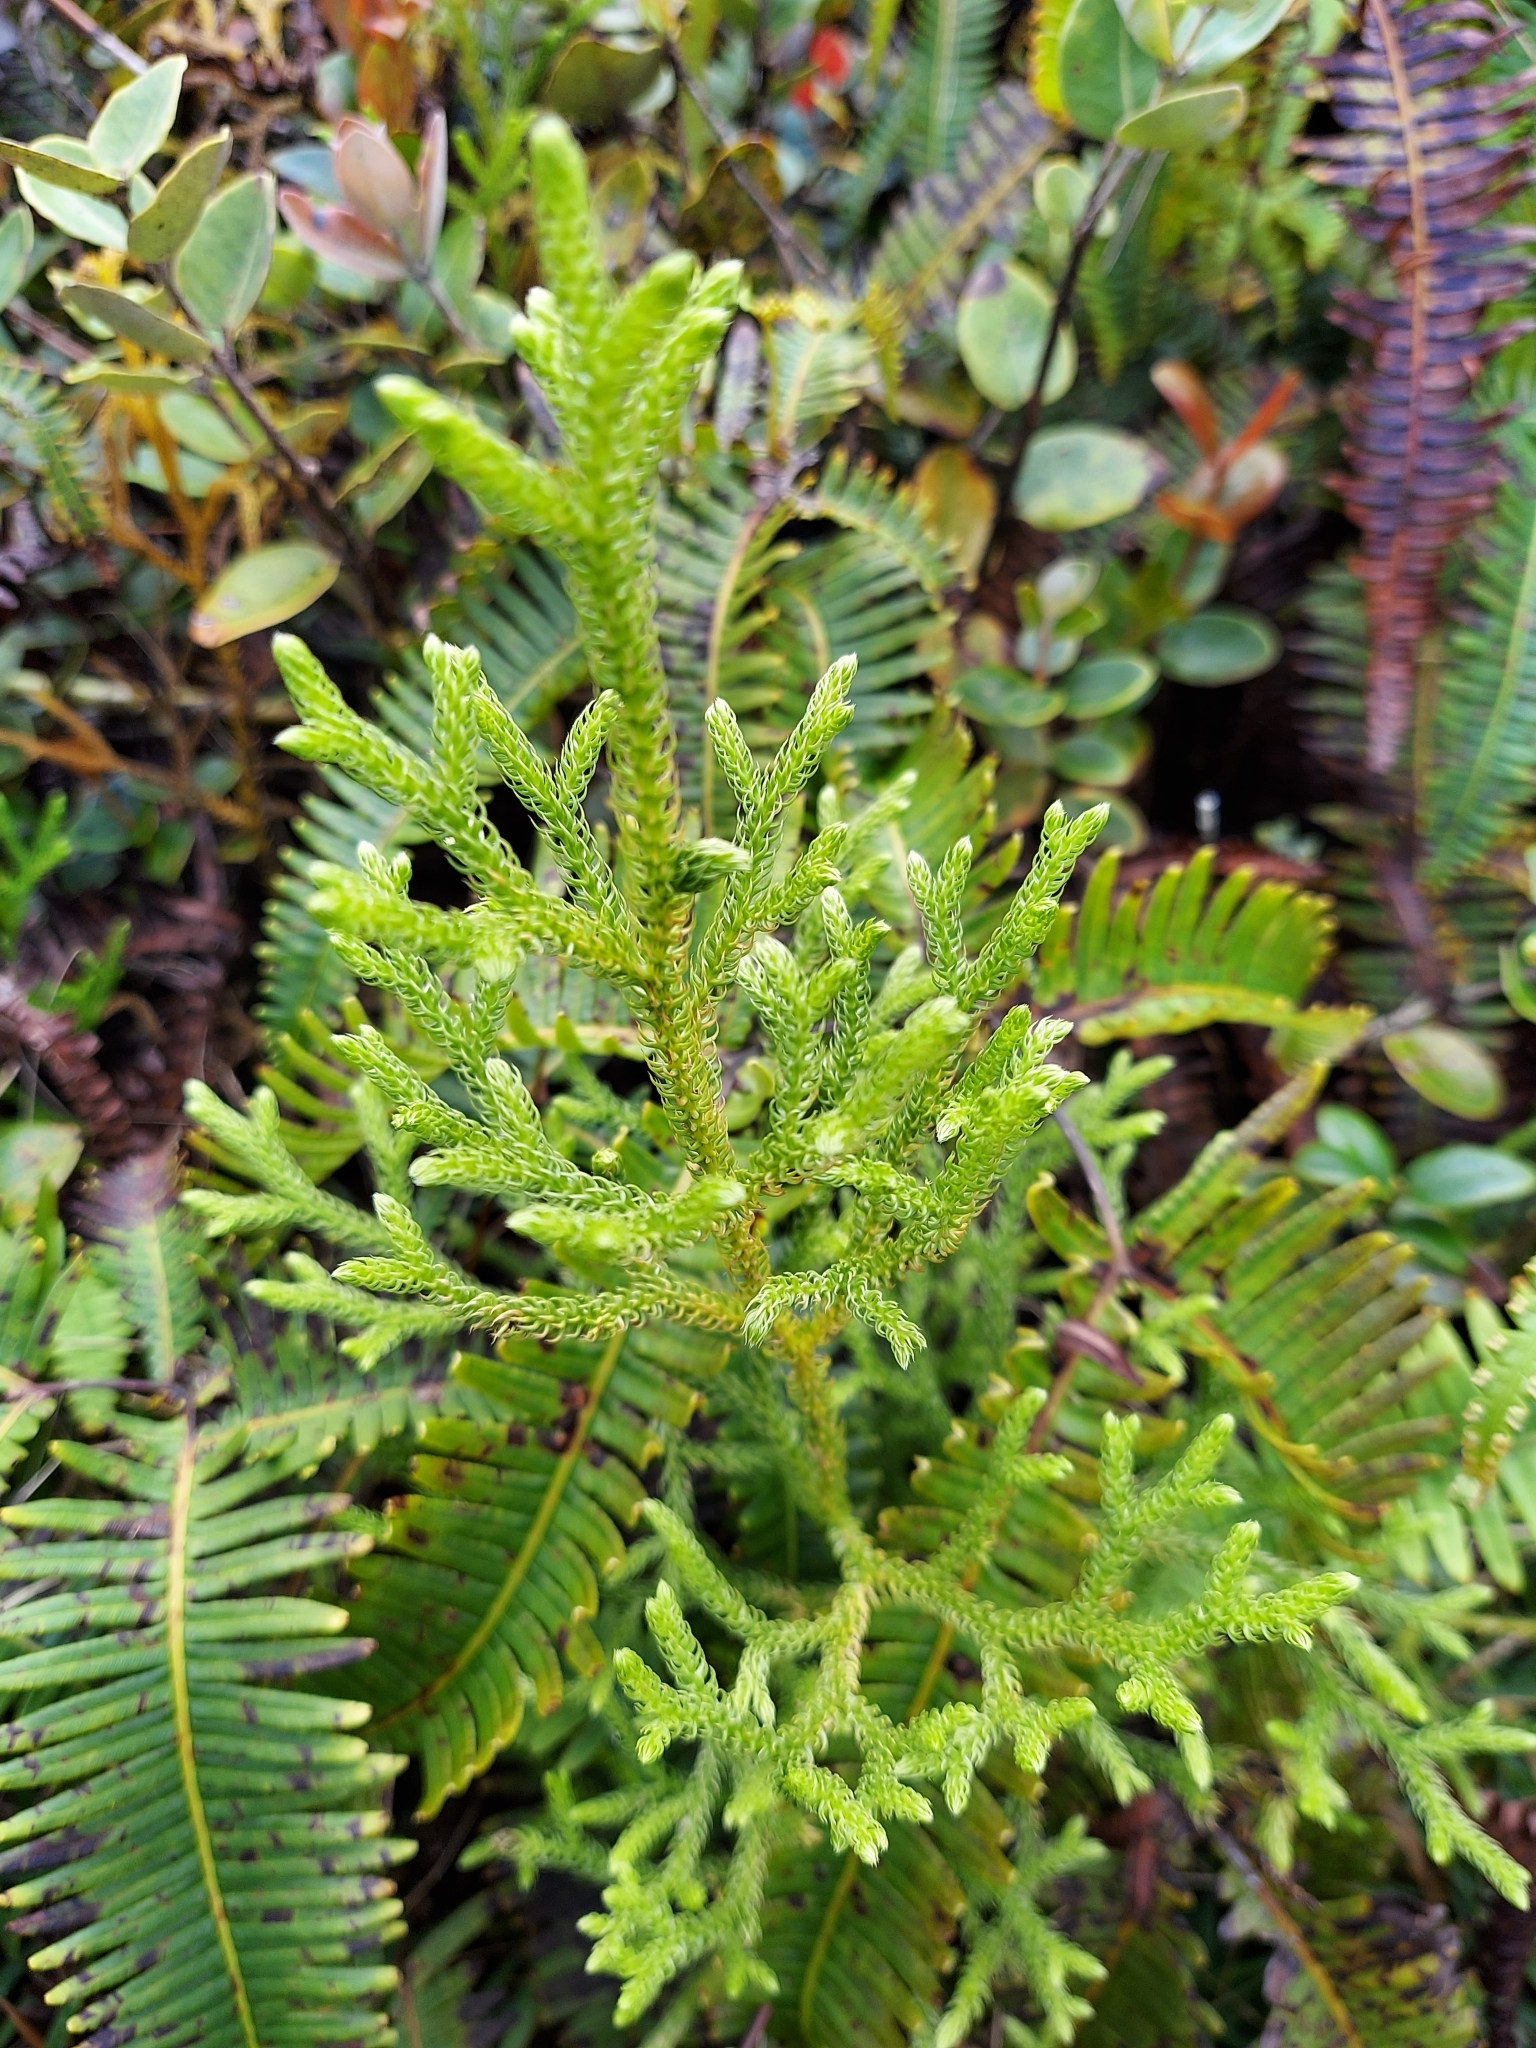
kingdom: Plantae
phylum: Tracheophyta
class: Lycopodiopsida
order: Lycopodiales
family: Lycopodiaceae
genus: Palhinhaea
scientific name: Palhinhaea cernua
